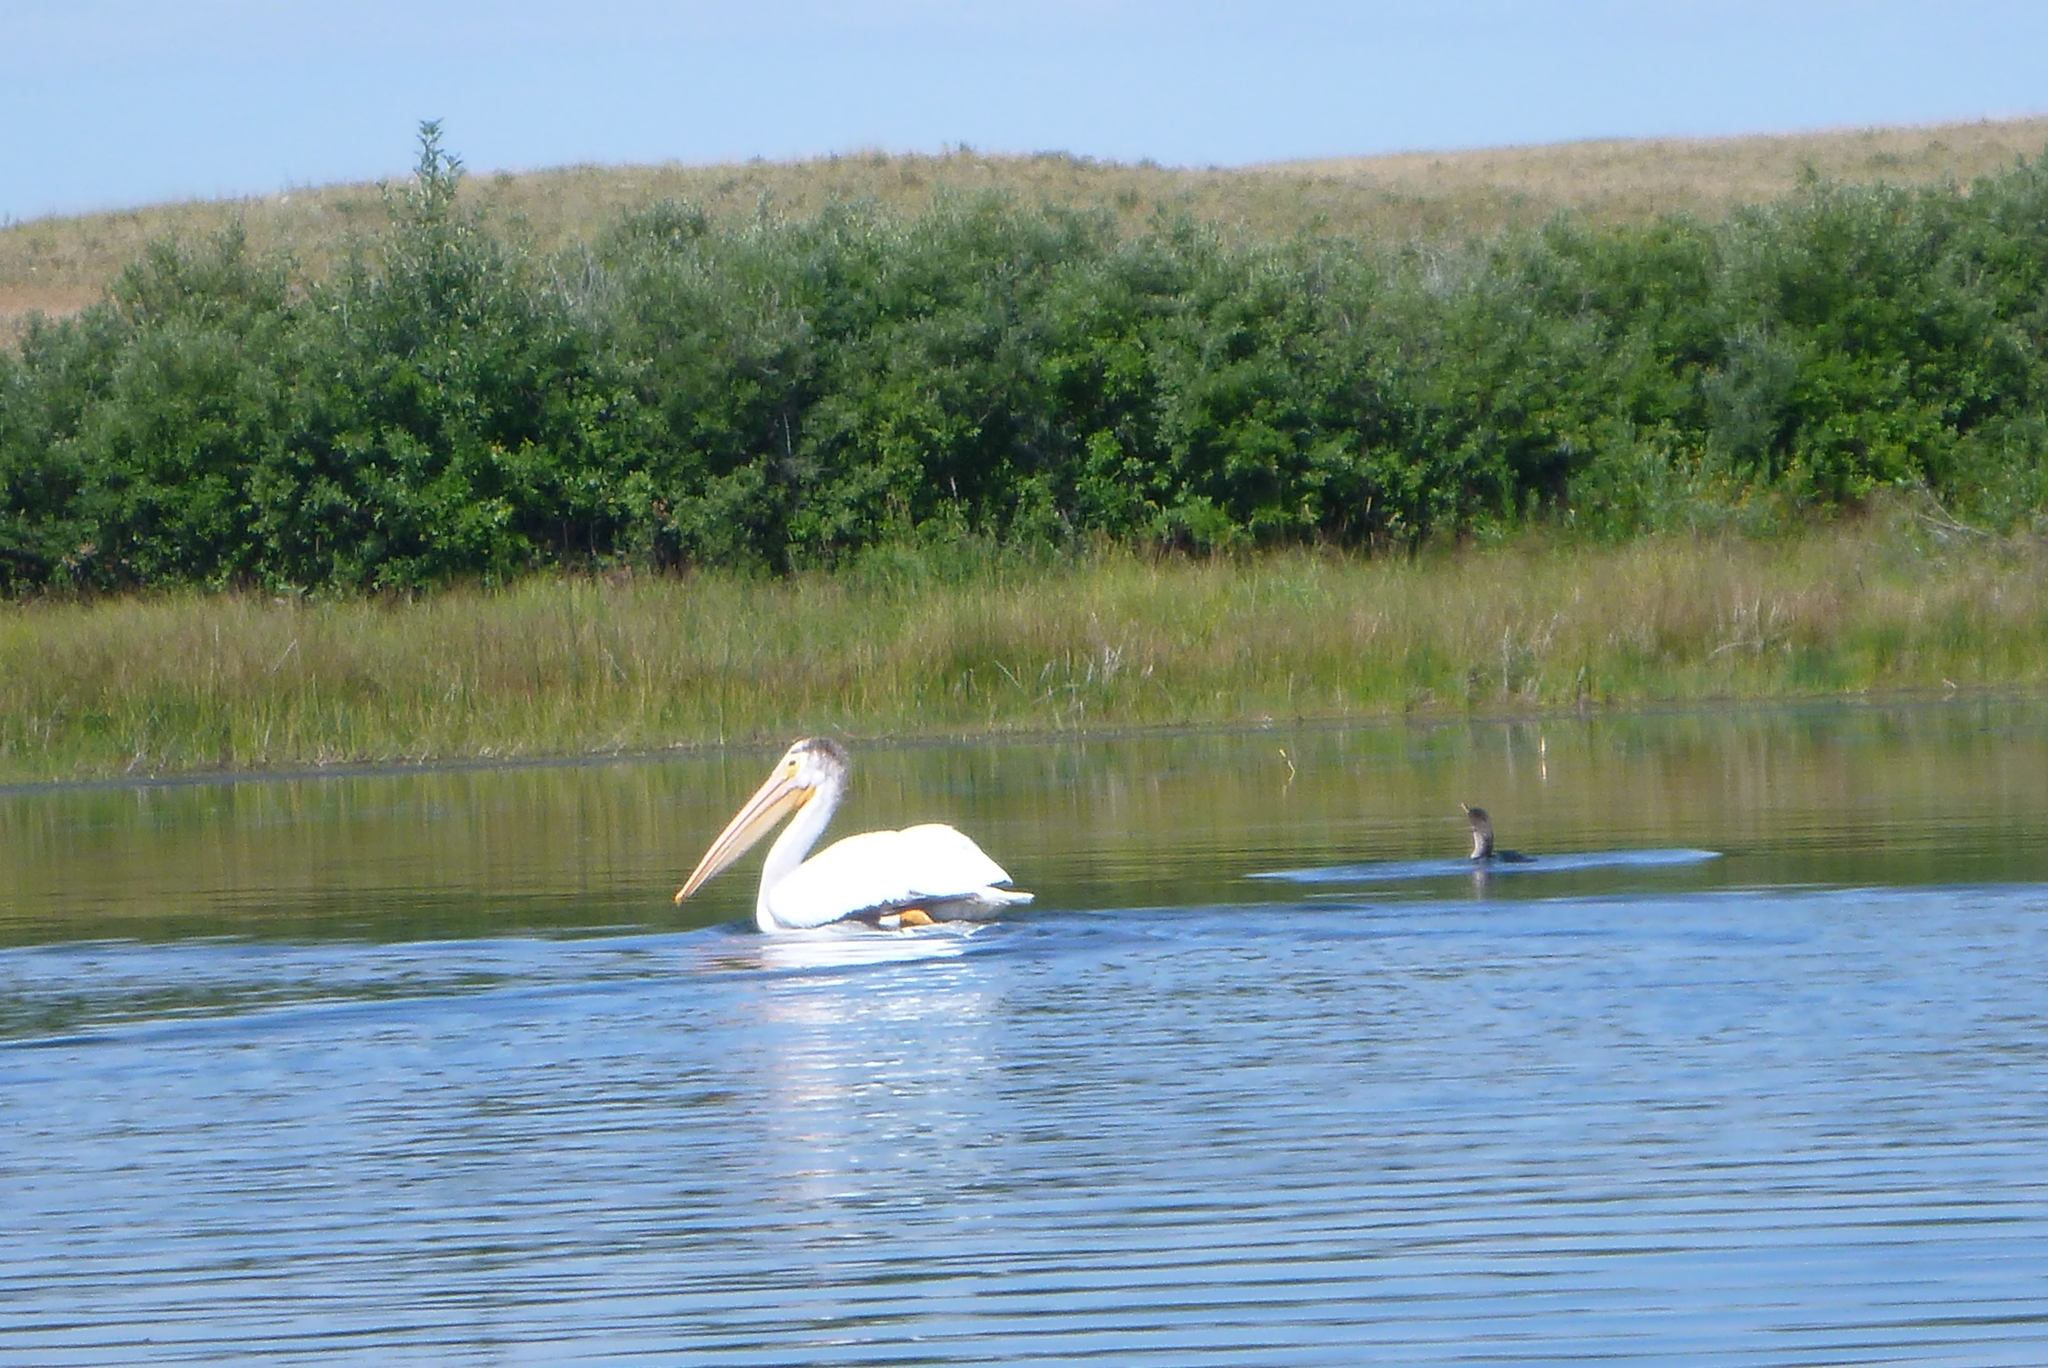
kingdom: Animalia
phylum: Chordata
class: Aves
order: Pelecaniformes
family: Pelecanidae
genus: Pelecanus
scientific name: Pelecanus erythrorhynchos
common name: American white pelican
